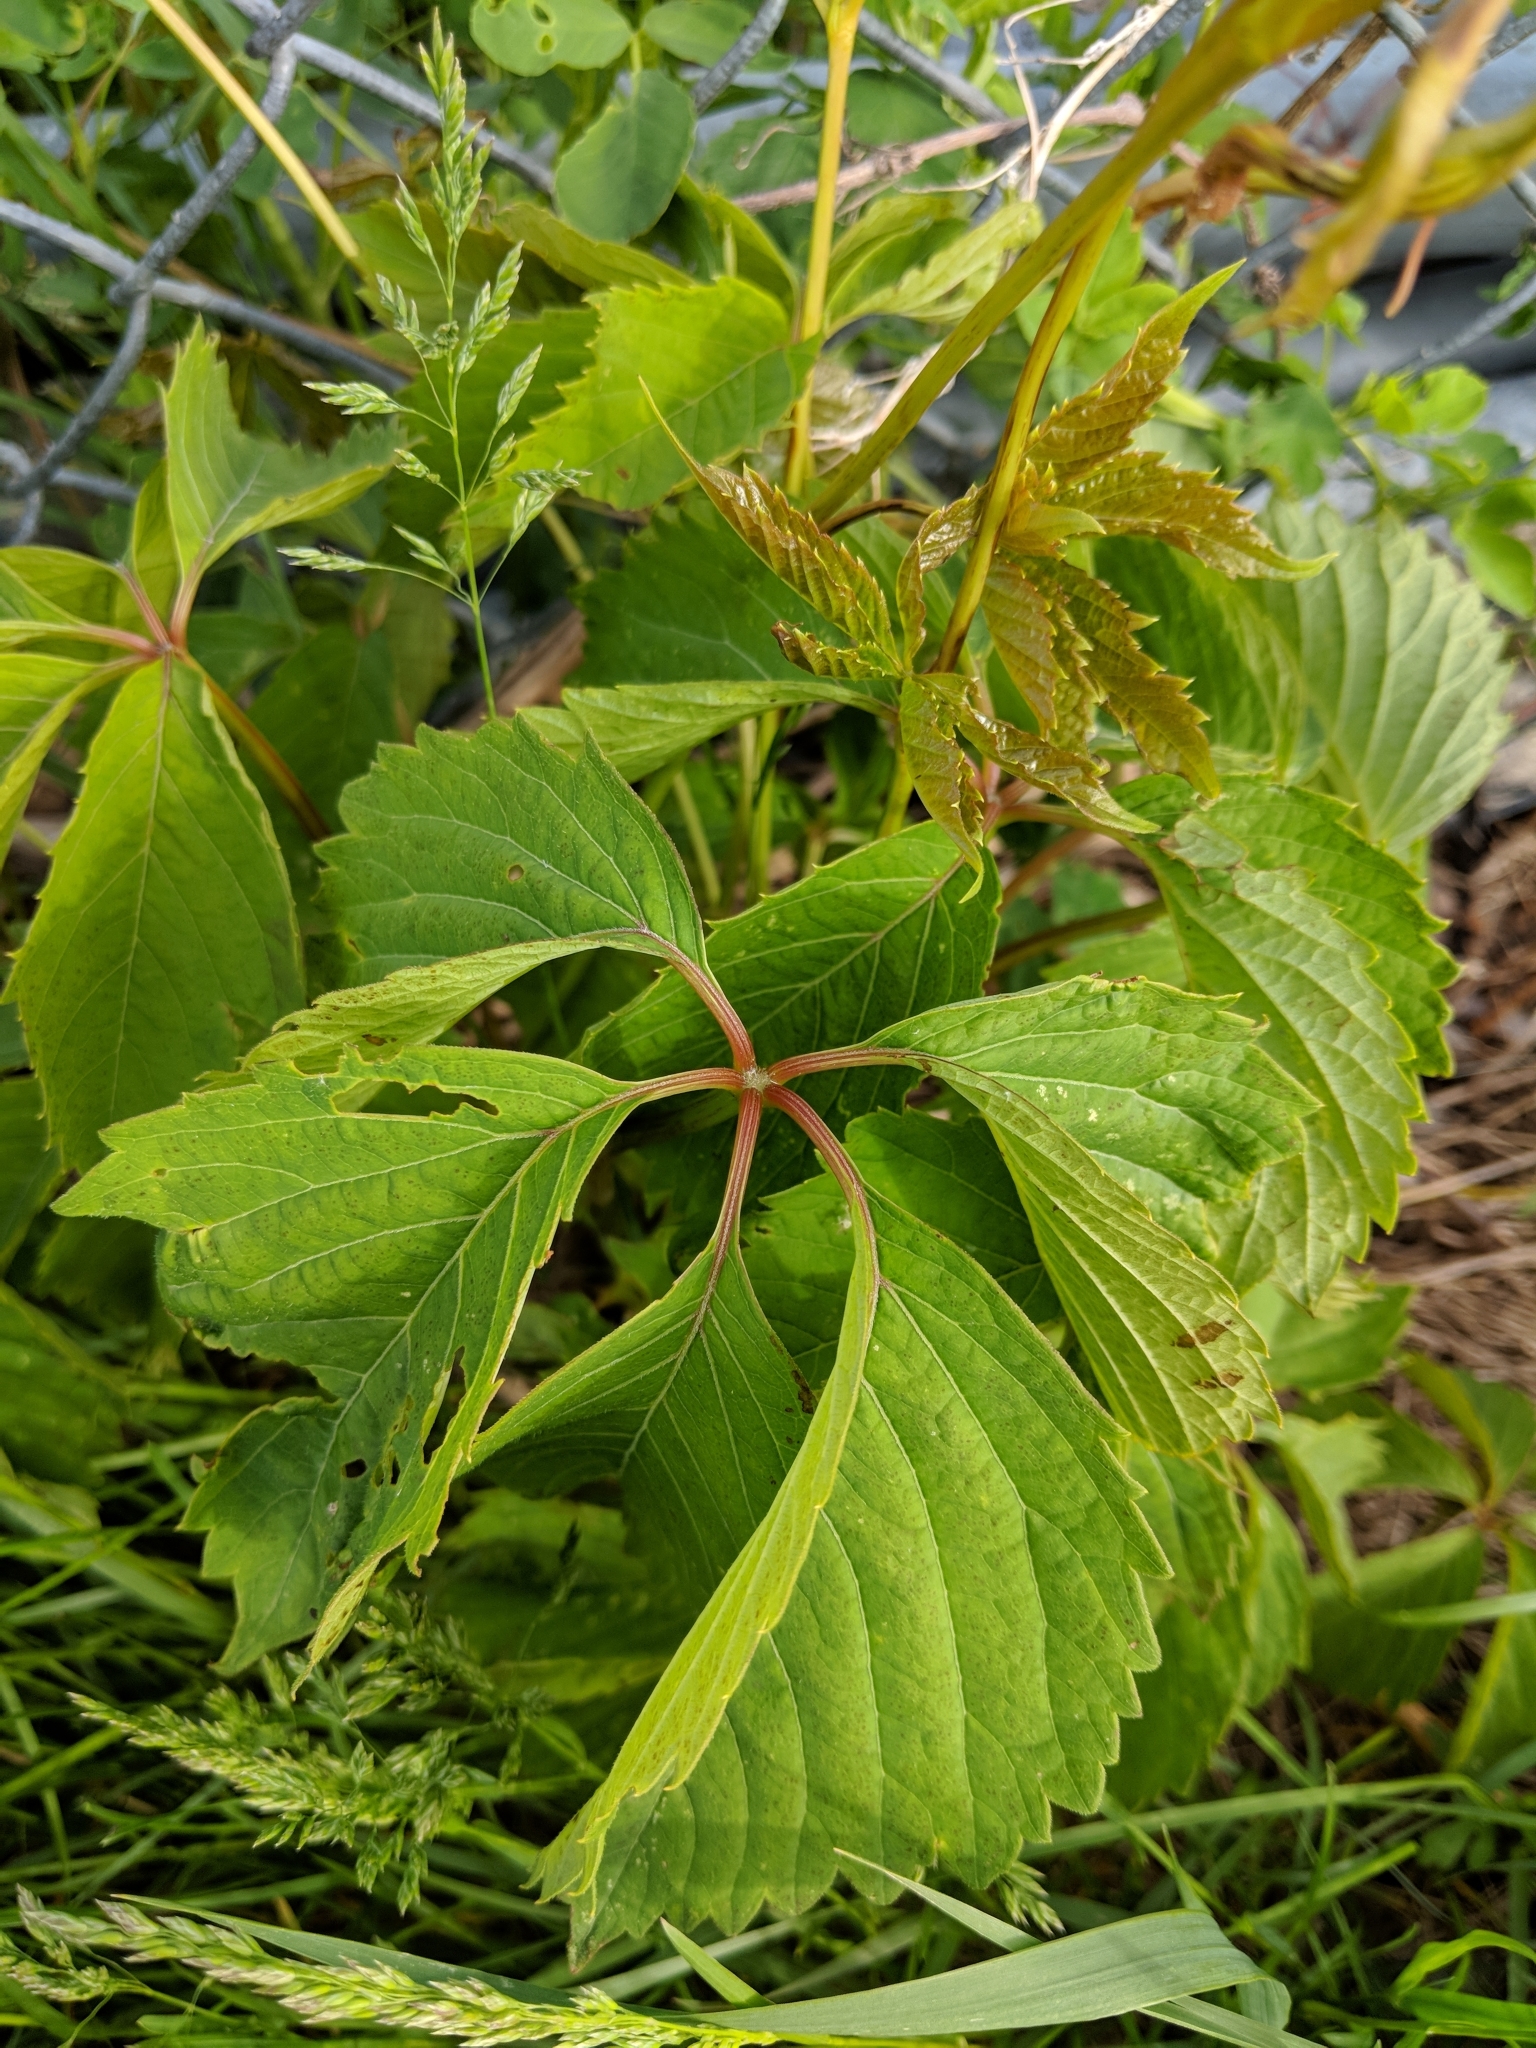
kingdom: Plantae
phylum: Tracheophyta
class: Magnoliopsida
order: Vitales
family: Vitaceae
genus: Parthenocissus
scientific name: Parthenocissus quinquefolia
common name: Virginia-creeper
